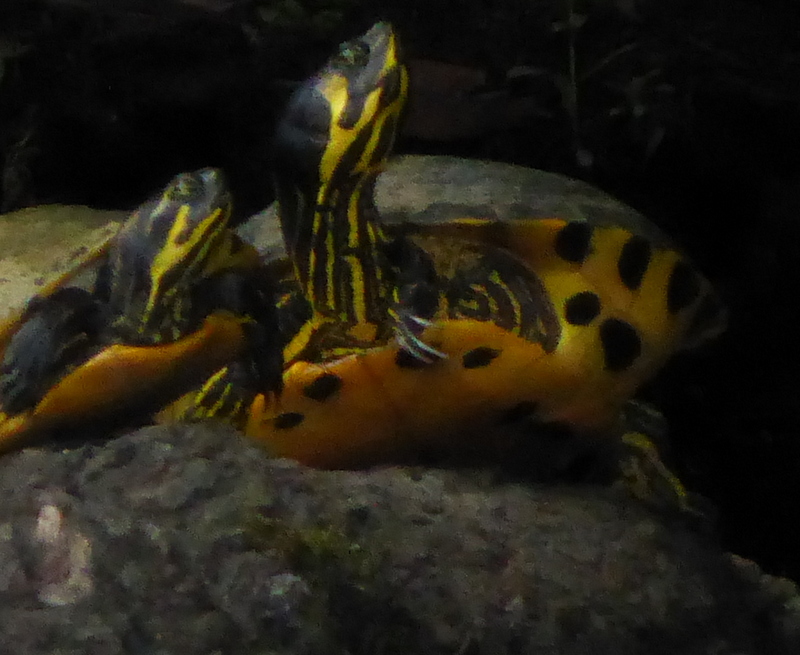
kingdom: Animalia
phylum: Chordata
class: Testudines
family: Emydidae
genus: Trachemys
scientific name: Trachemys scripta
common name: Slider
